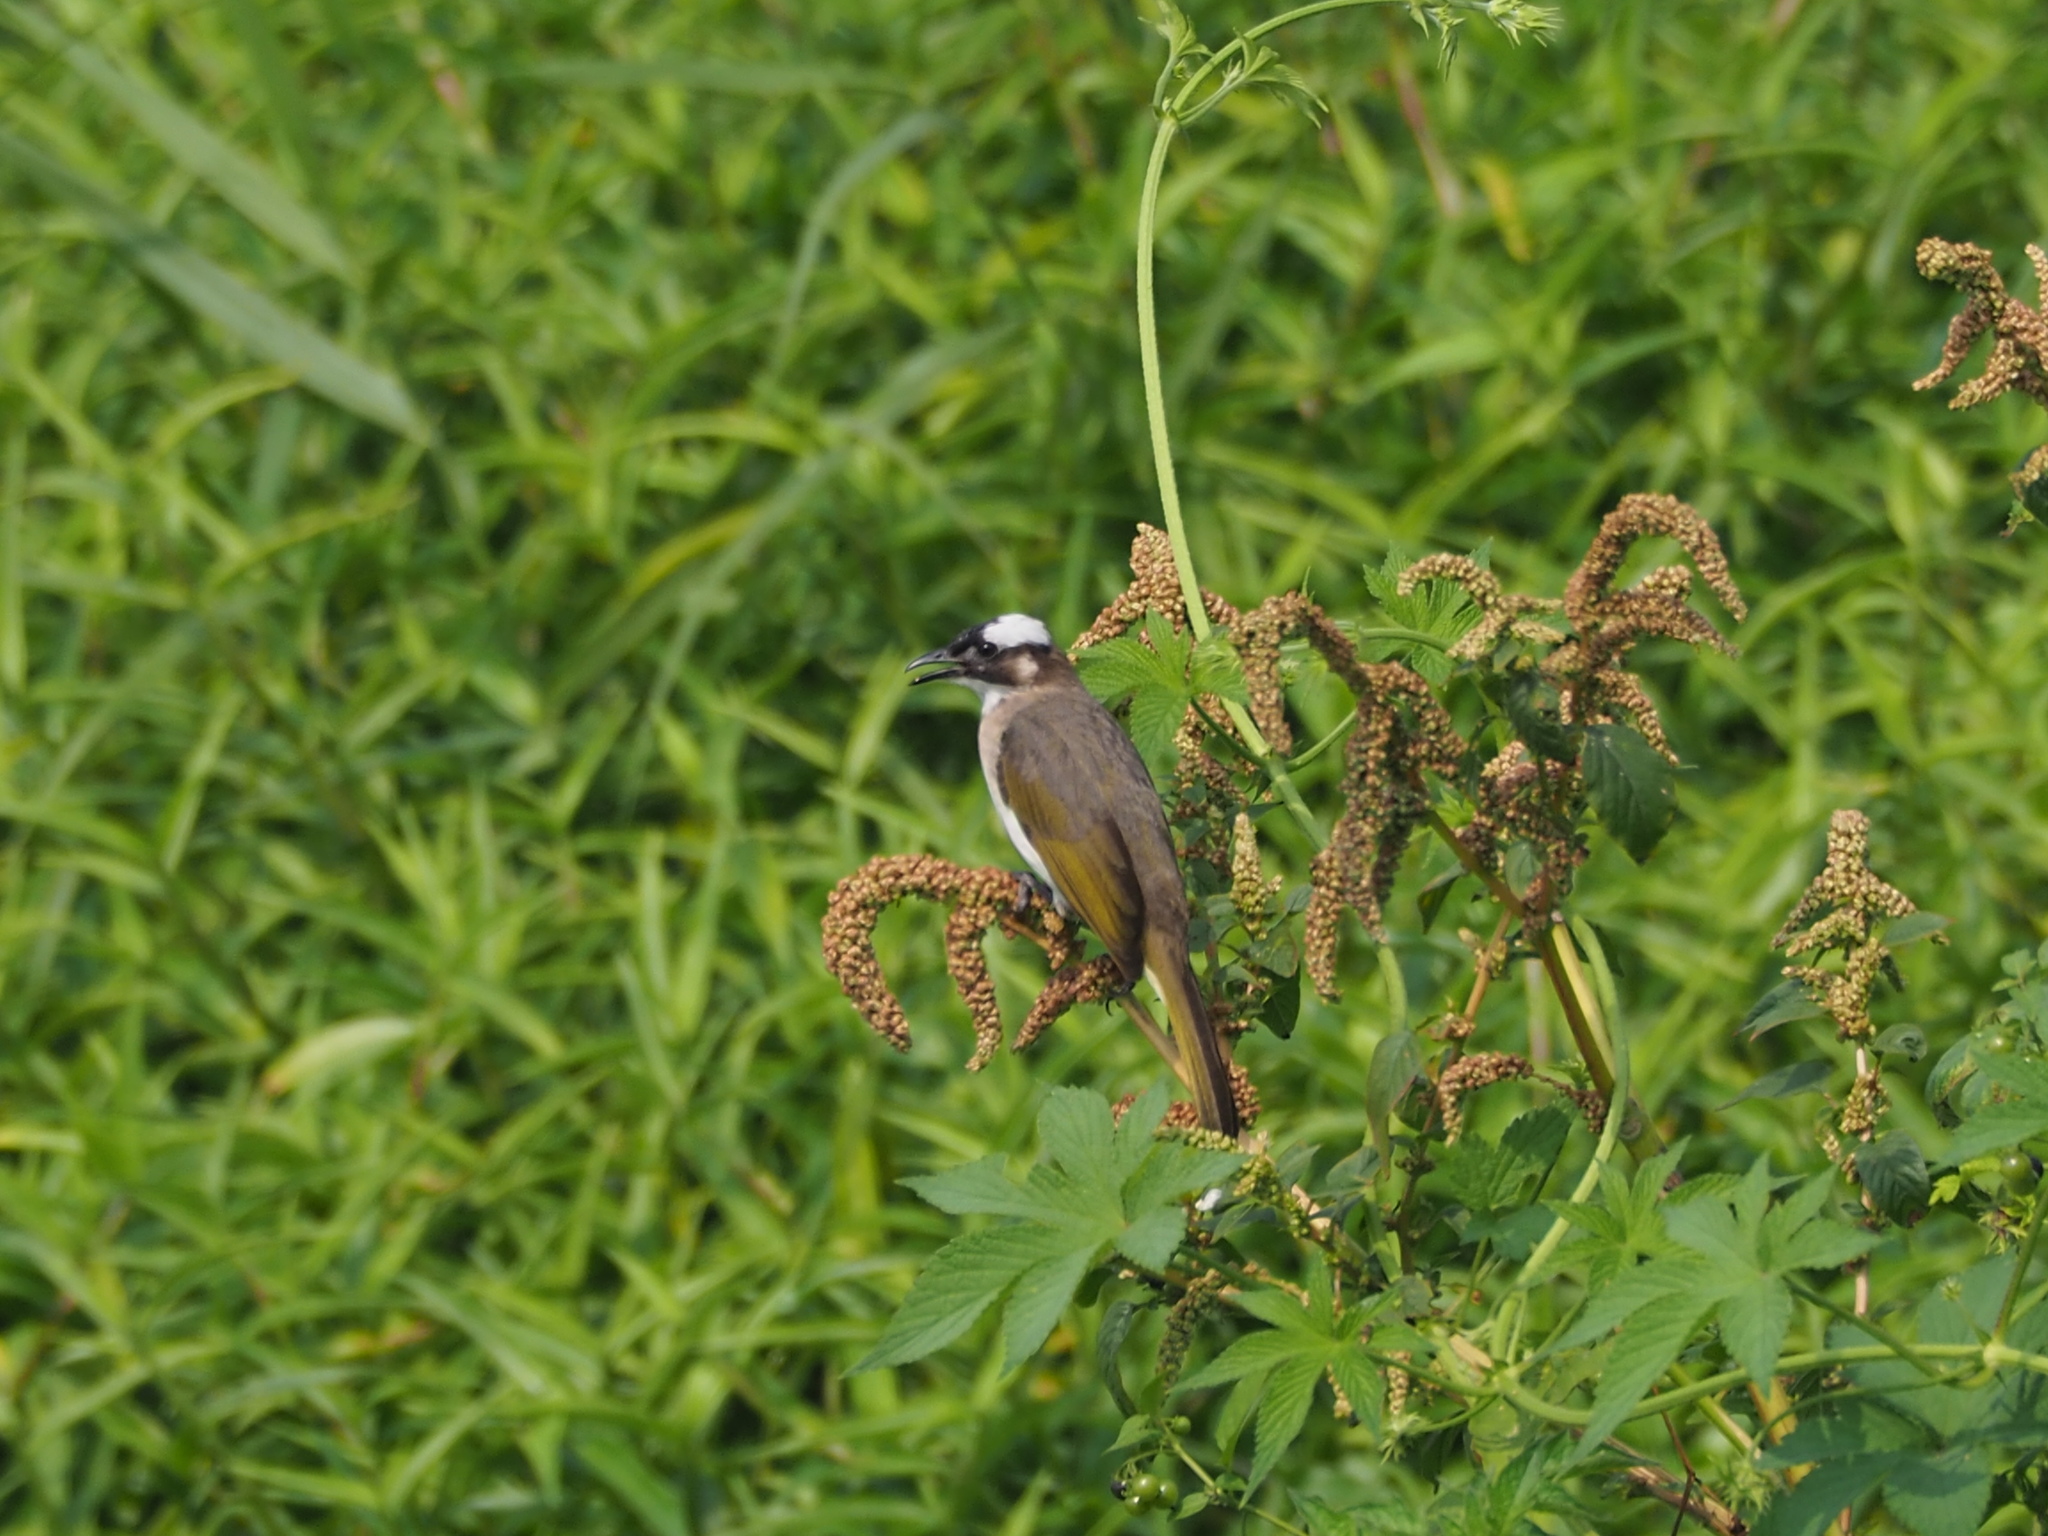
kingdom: Animalia
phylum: Chordata
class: Aves
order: Passeriformes
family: Pycnonotidae
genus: Pycnonotus
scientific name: Pycnonotus sinensis
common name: Light-vented bulbul
